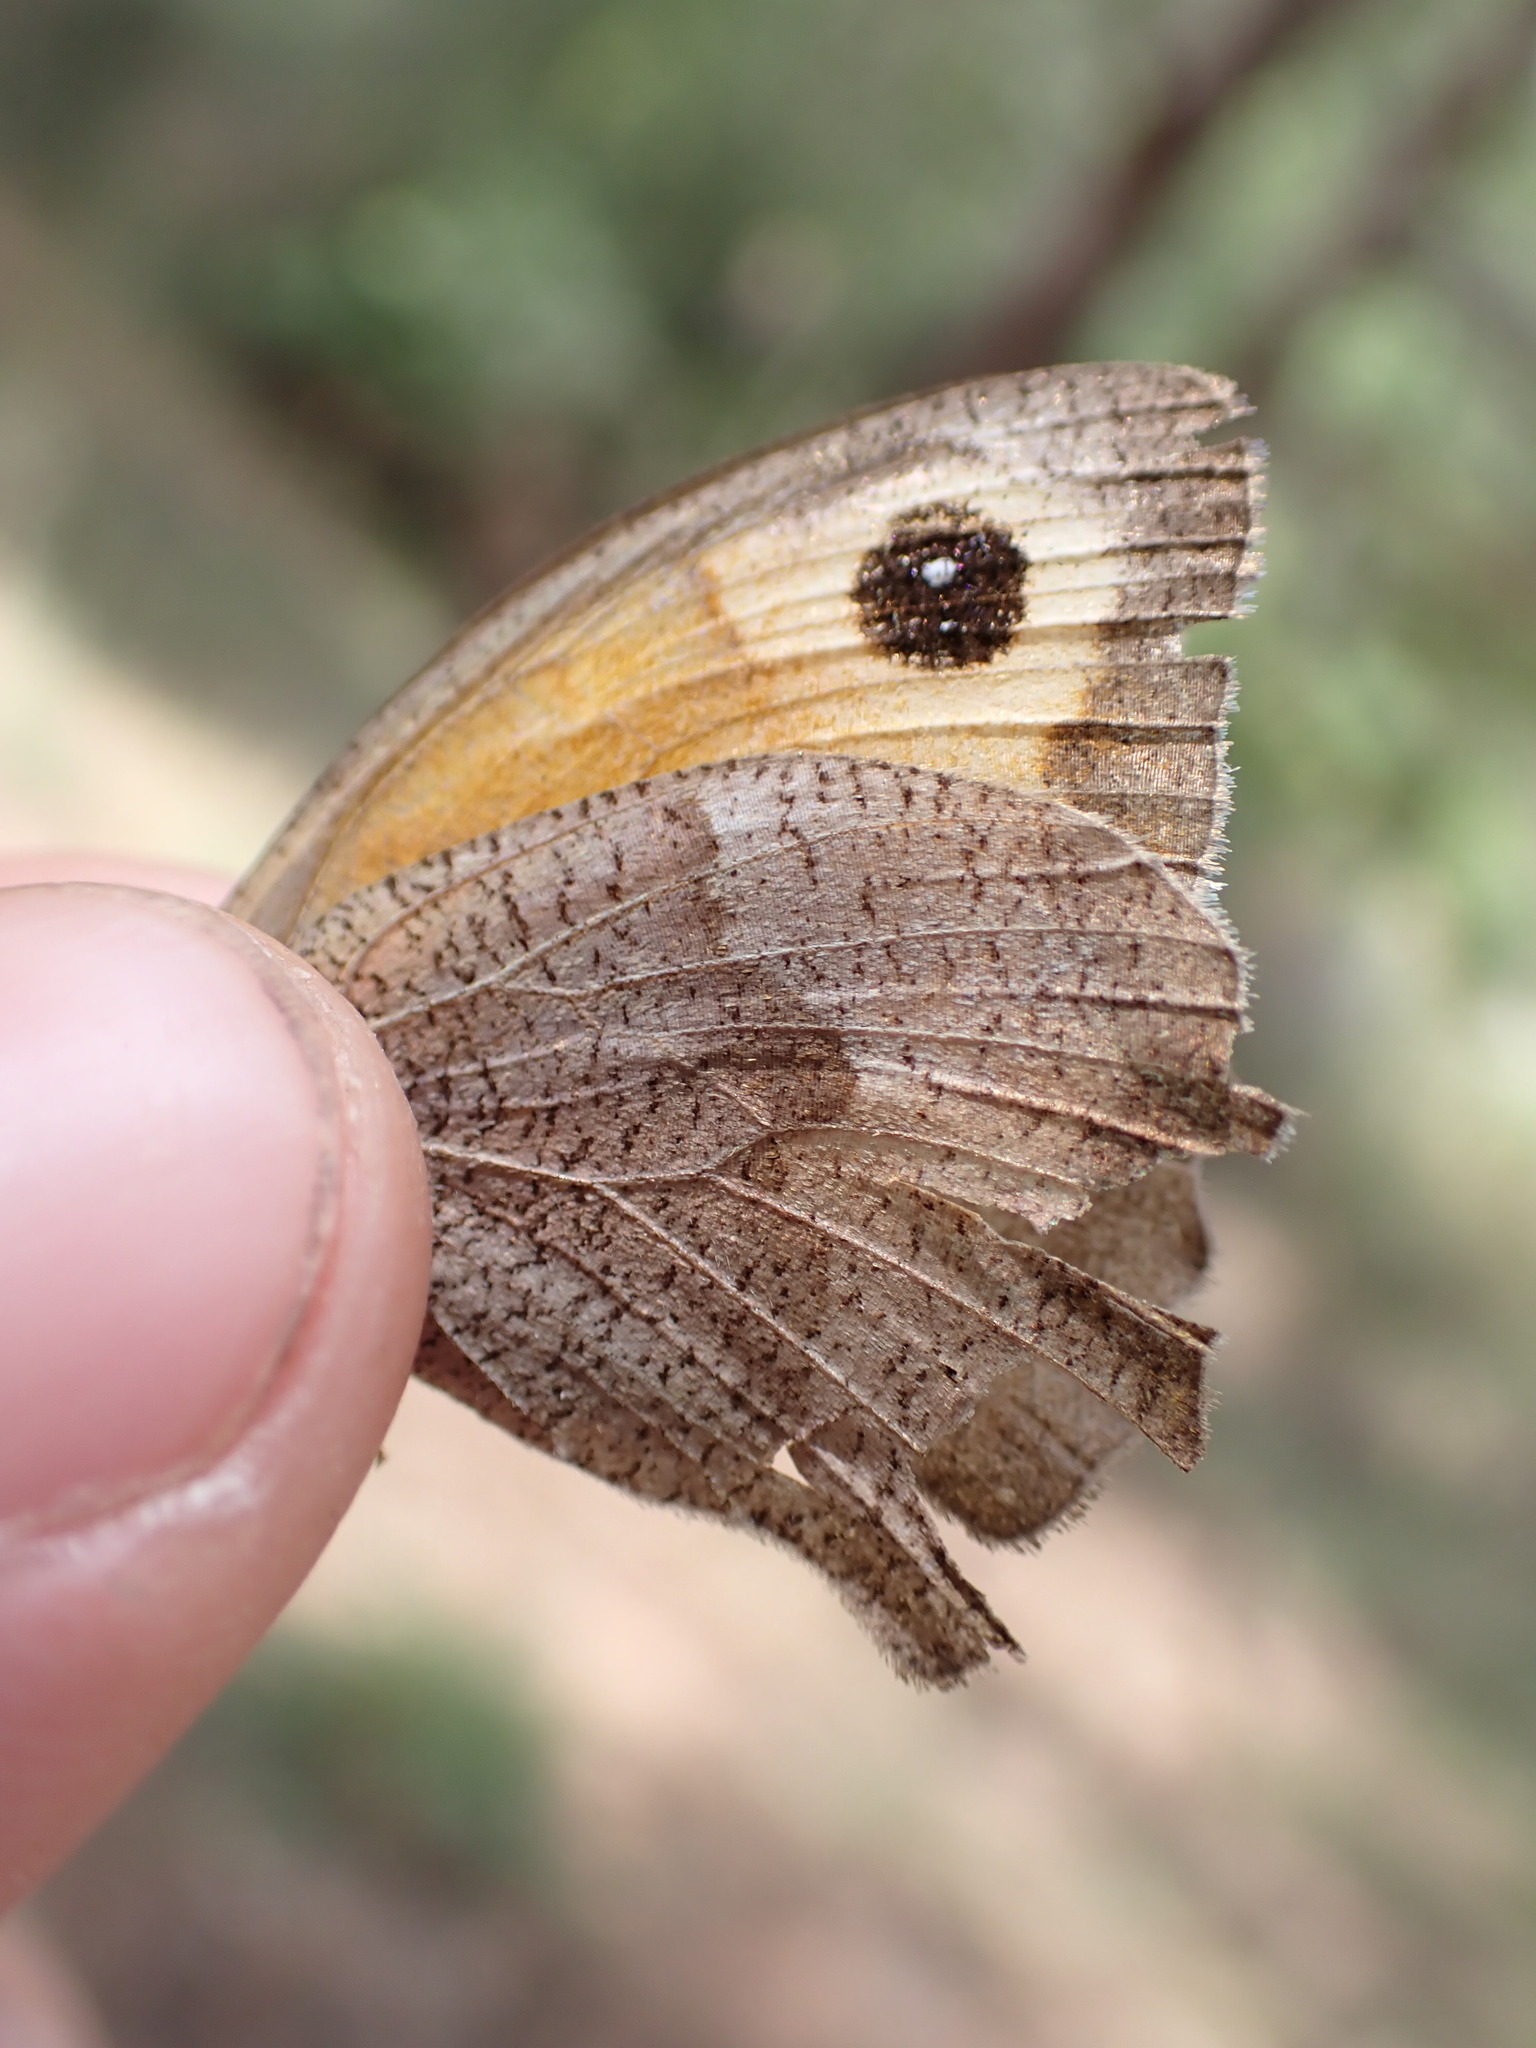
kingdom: Animalia
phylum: Arthropoda
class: Insecta
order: Lepidoptera
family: Nymphalidae
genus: Maniola
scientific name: Maniola jurtina
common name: Meadow brown
